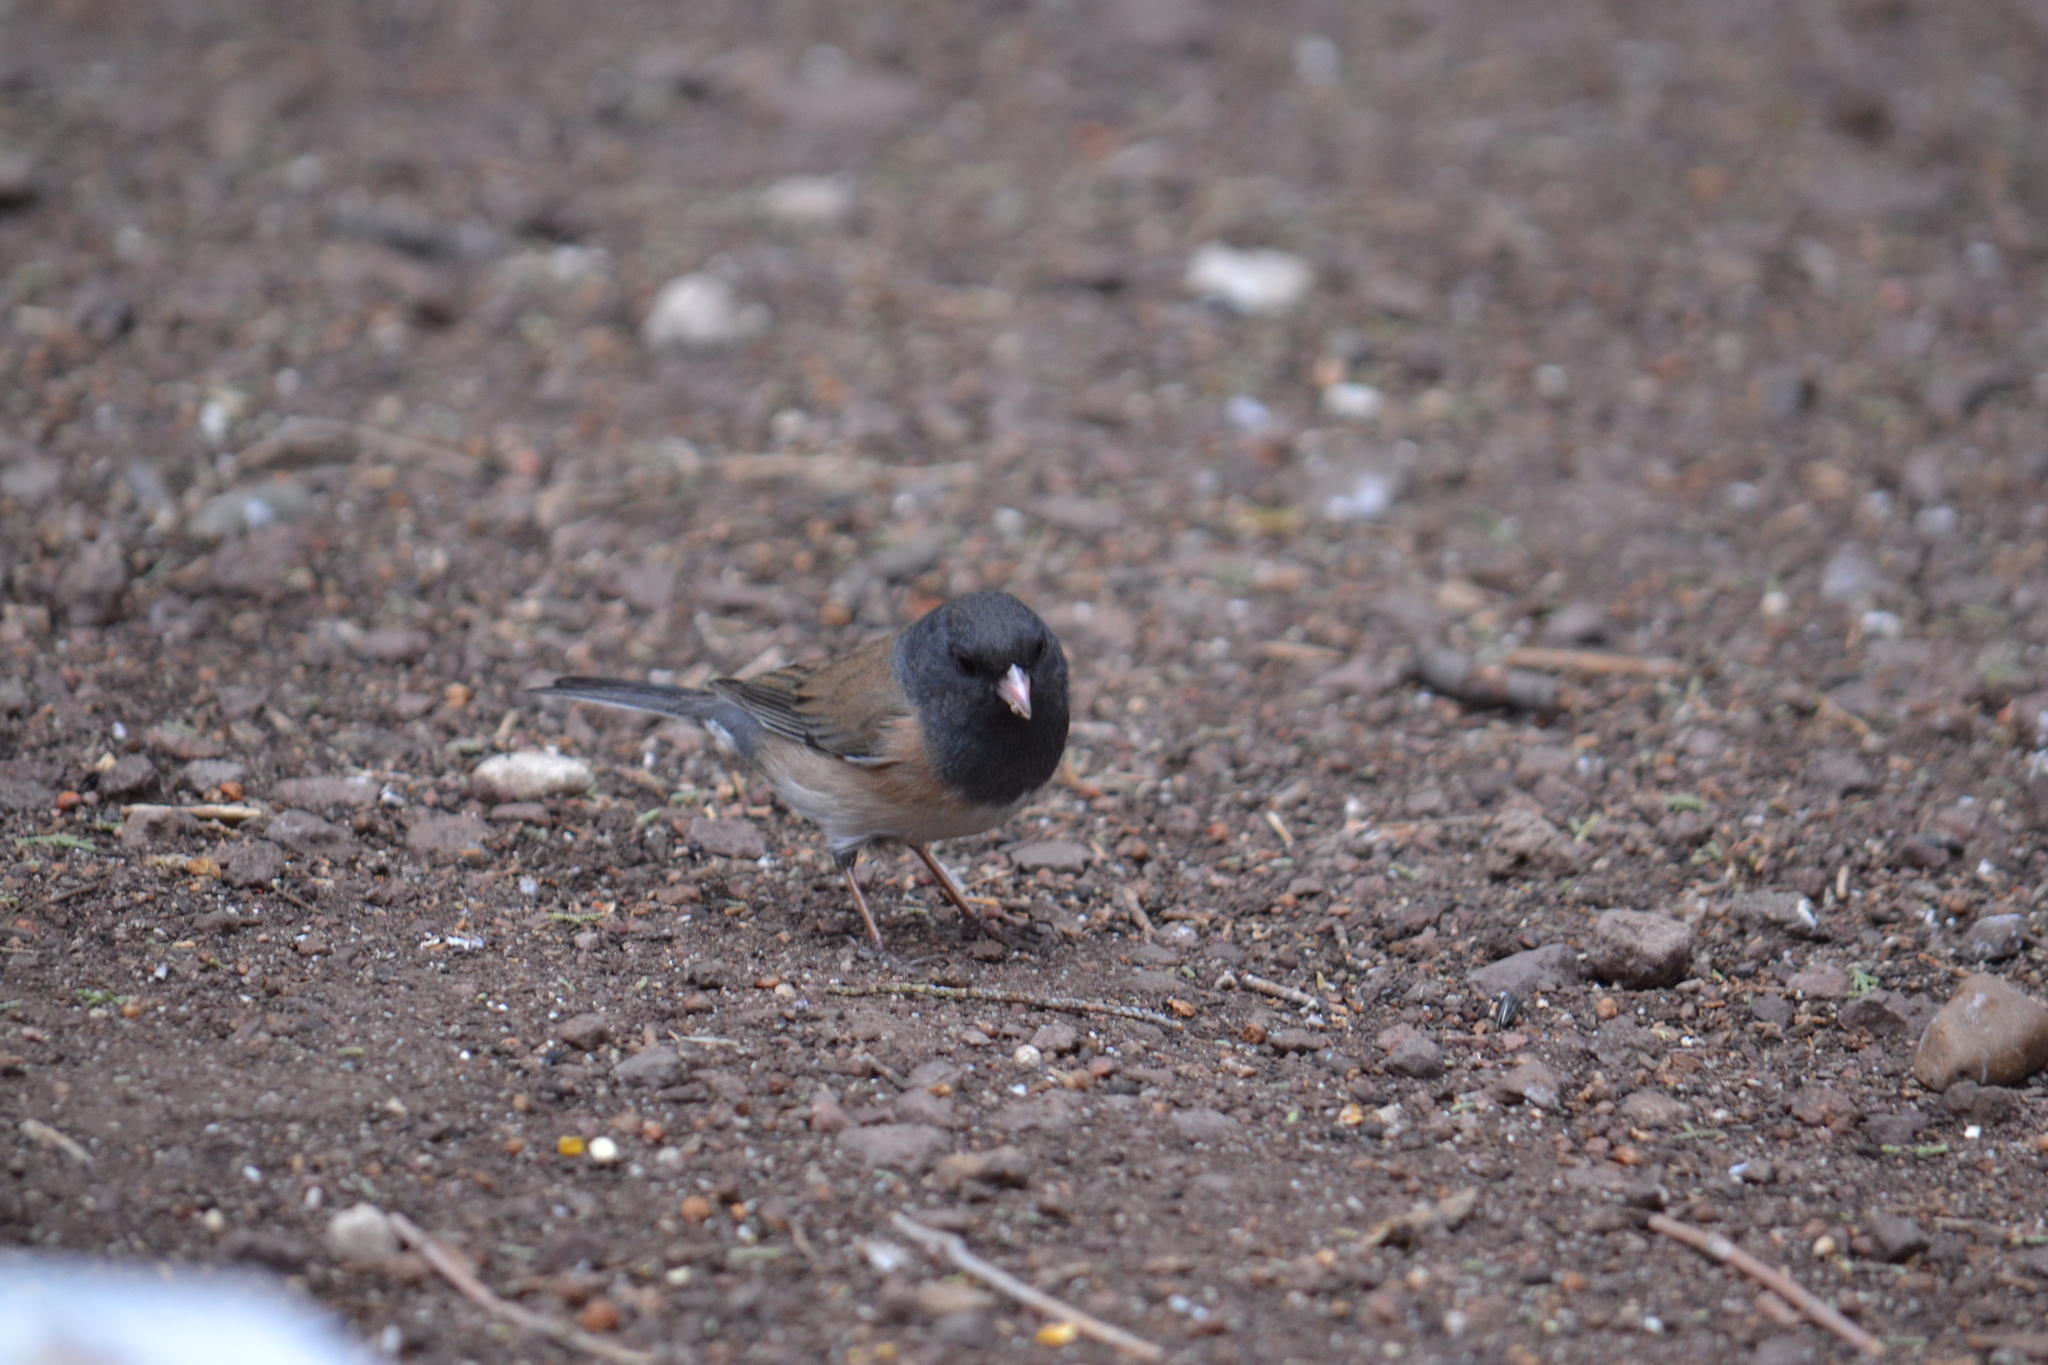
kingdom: Animalia
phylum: Chordata
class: Aves
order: Passeriformes
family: Passerellidae
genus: Junco
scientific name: Junco hyemalis
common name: Dark-eyed junco
